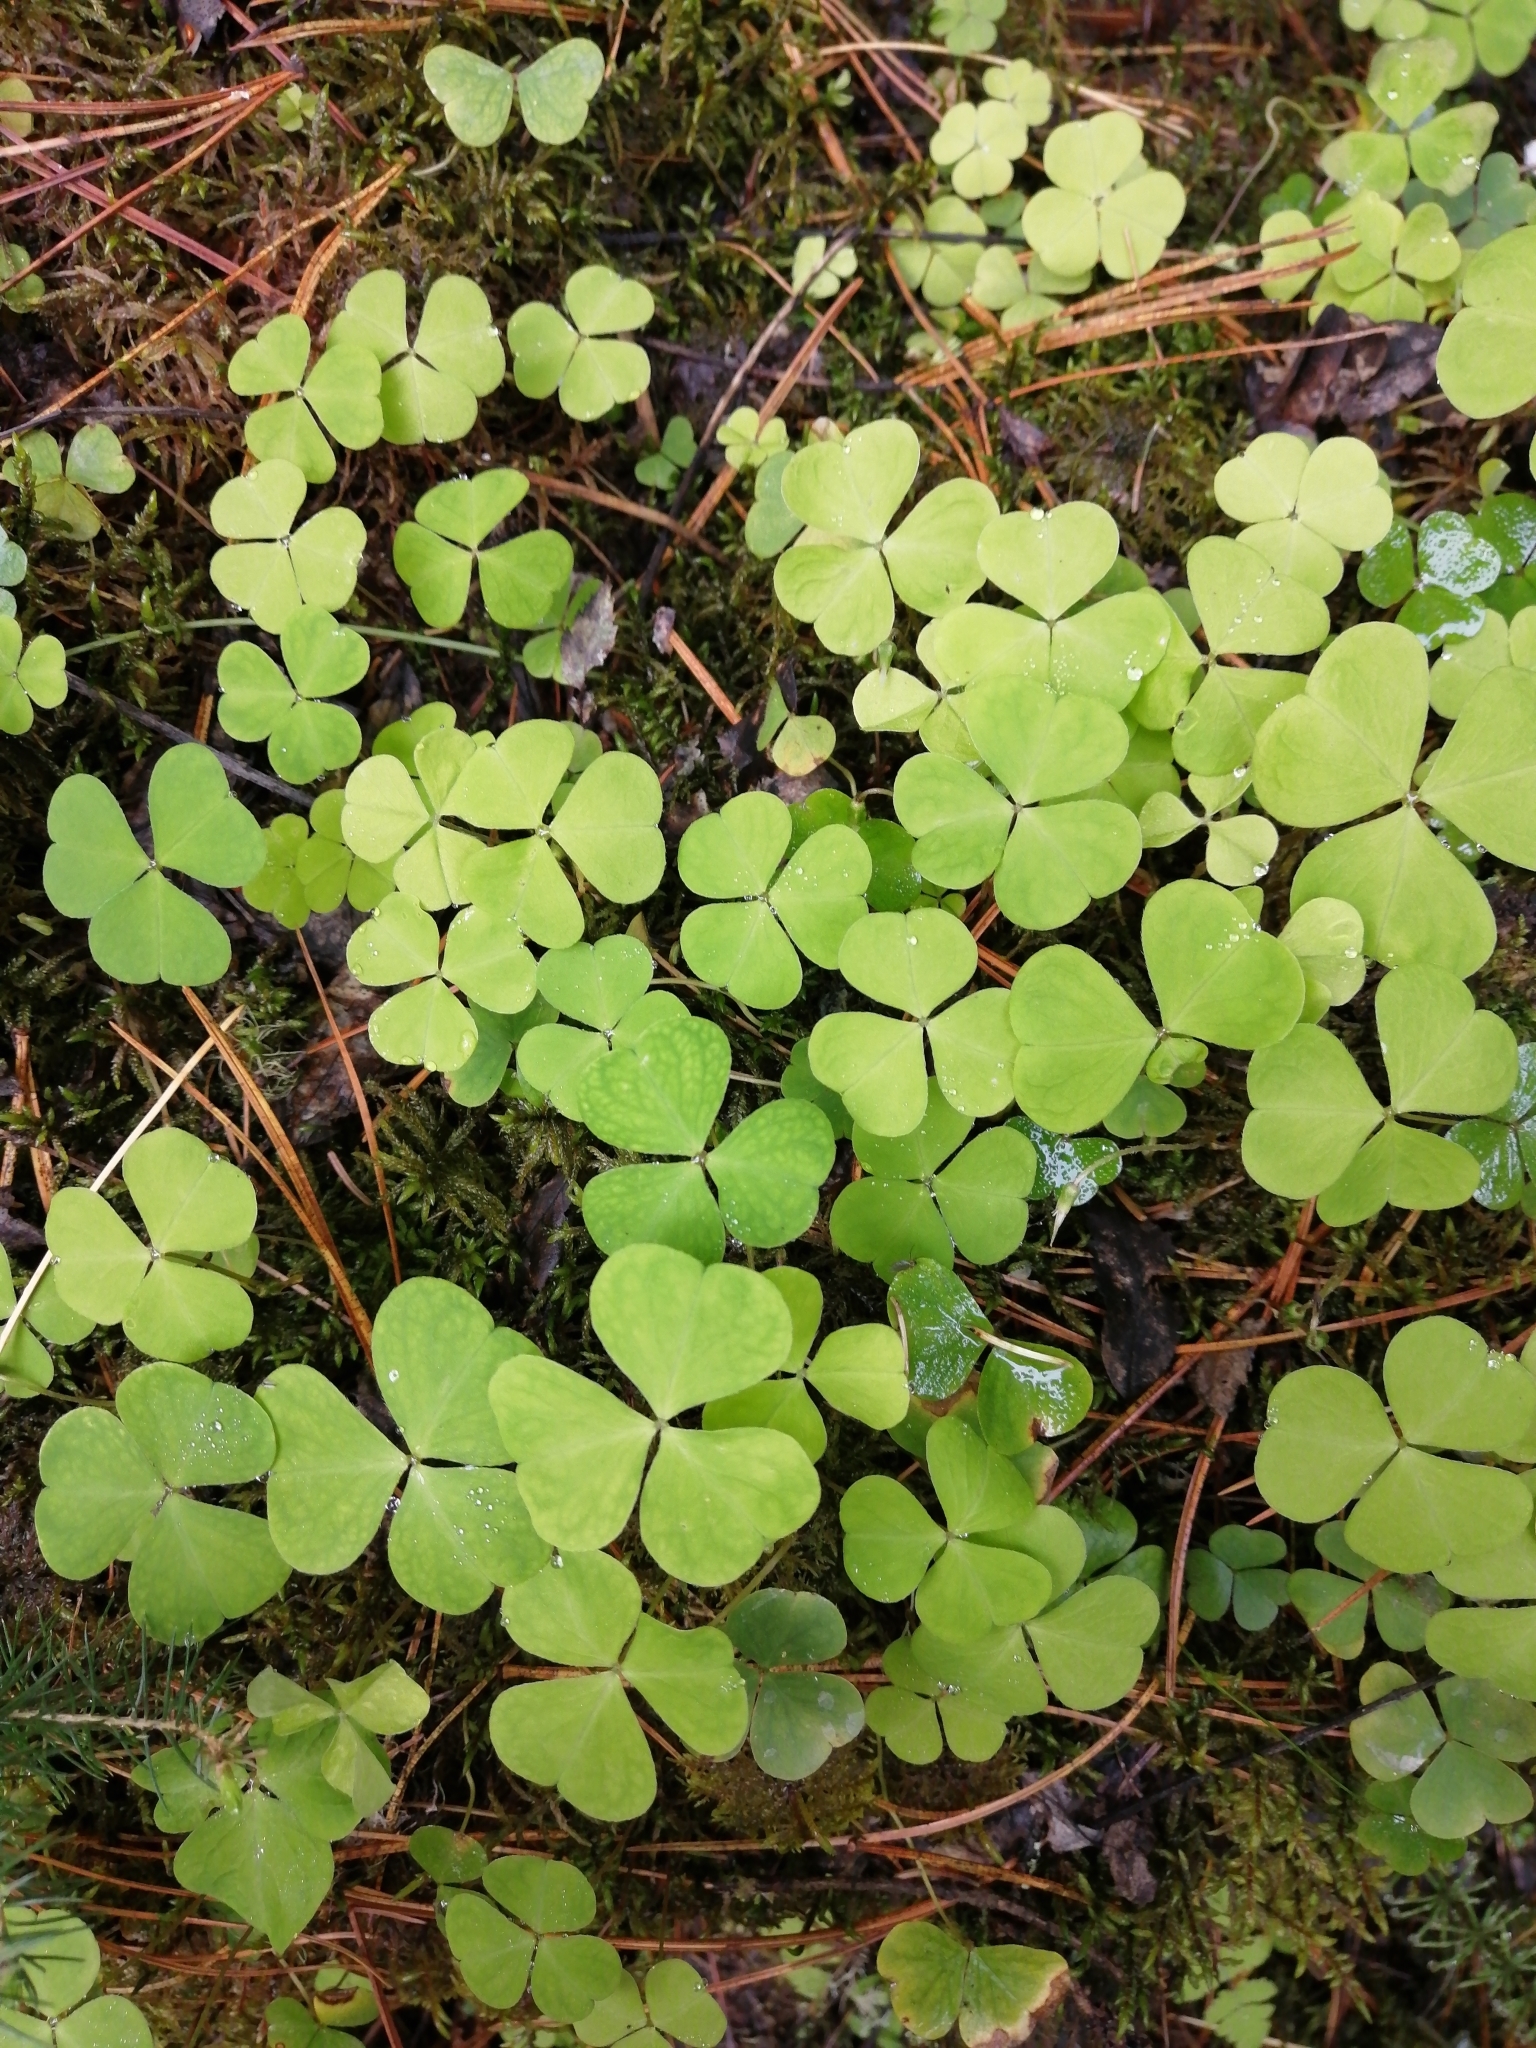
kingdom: Plantae
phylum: Tracheophyta
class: Magnoliopsida
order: Oxalidales
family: Oxalidaceae
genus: Oxalis
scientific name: Oxalis acetosella
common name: Wood-sorrel
